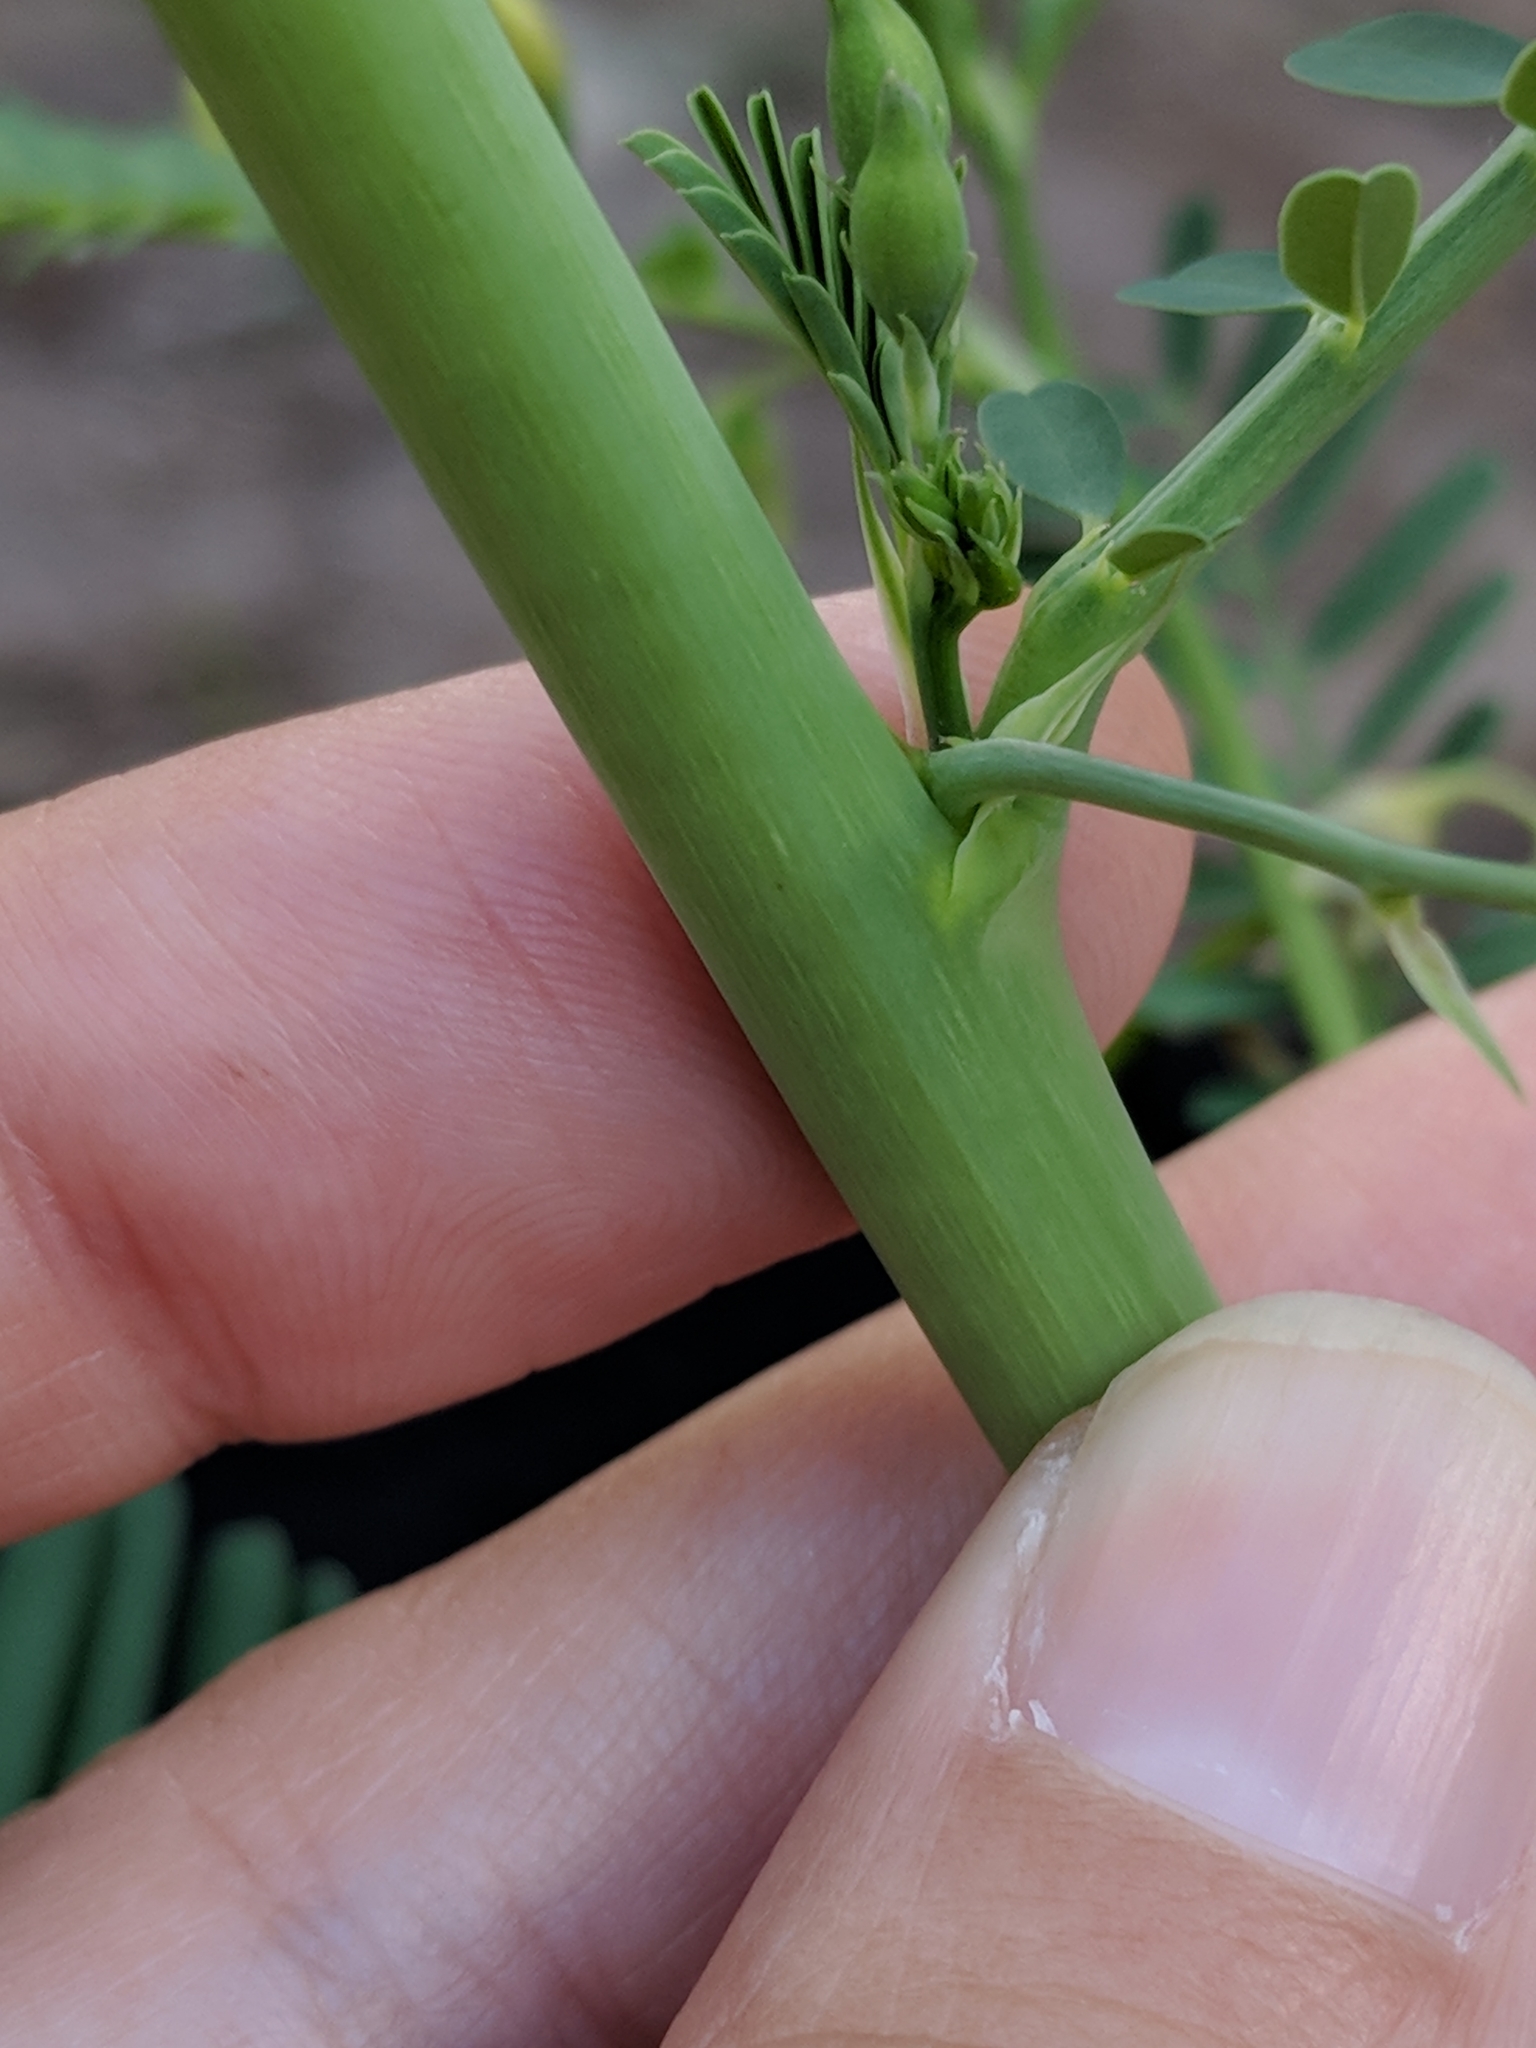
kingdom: Plantae
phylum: Tracheophyta
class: Magnoliopsida
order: Fabales
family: Fabaceae
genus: Sesbania
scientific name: Sesbania herbacea
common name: Bigpod sesbania
